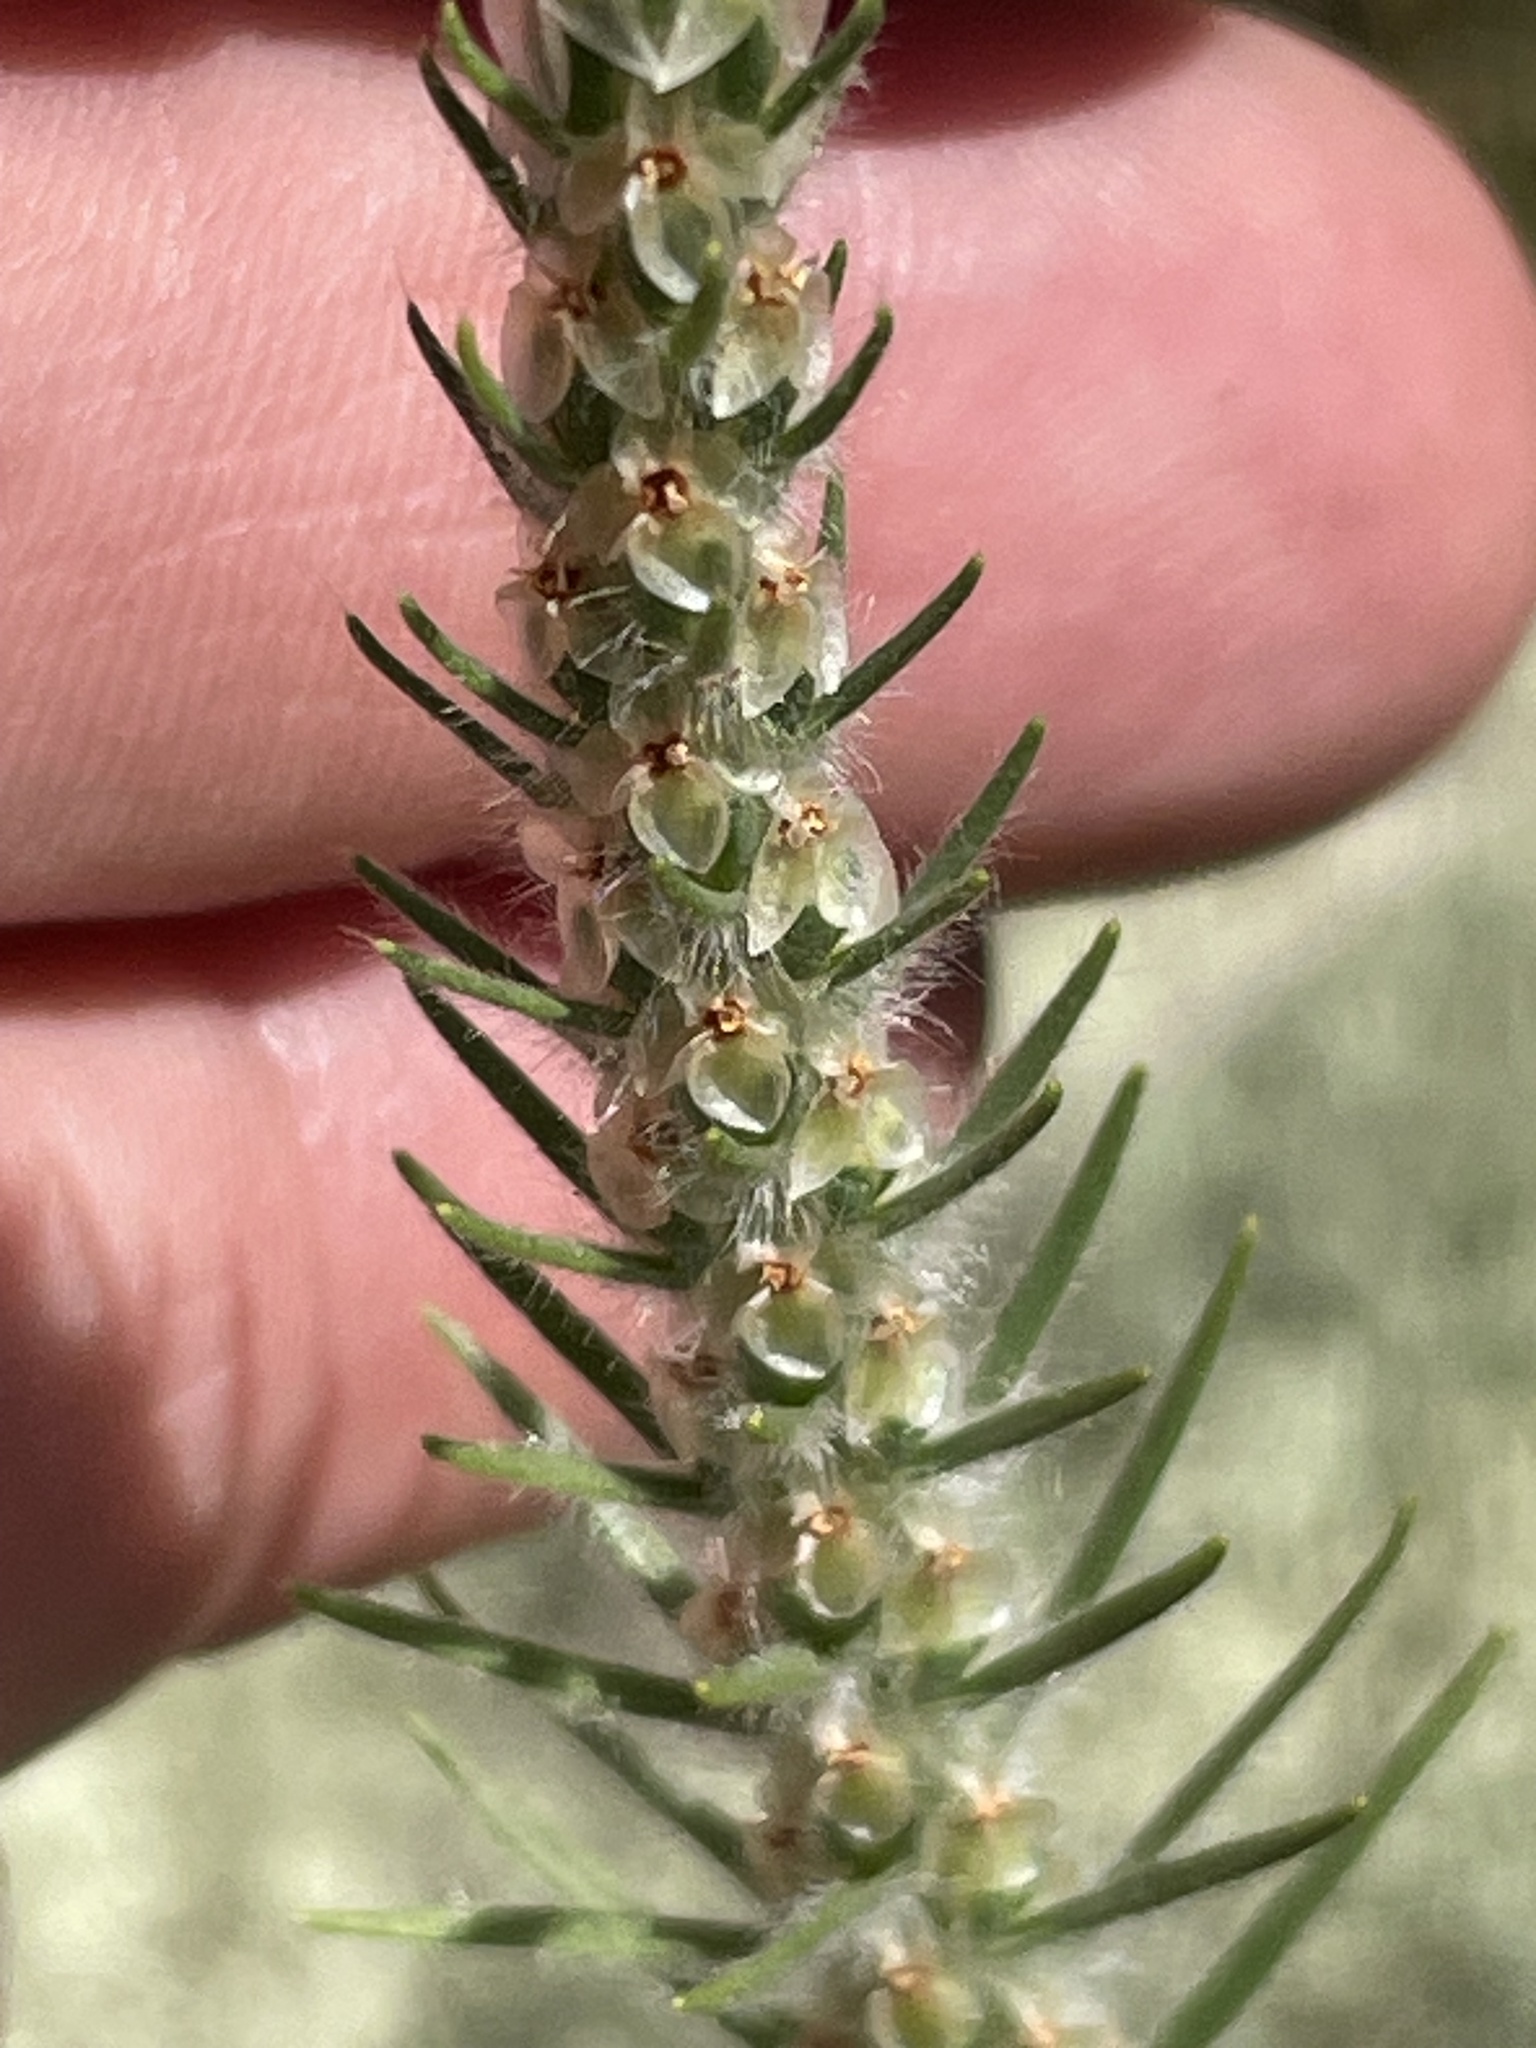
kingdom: Plantae
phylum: Tracheophyta
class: Magnoliopsida
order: Lamiales
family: Plantaginaceae
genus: Plantago
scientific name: Plantago aristata
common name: Bracted plantain
